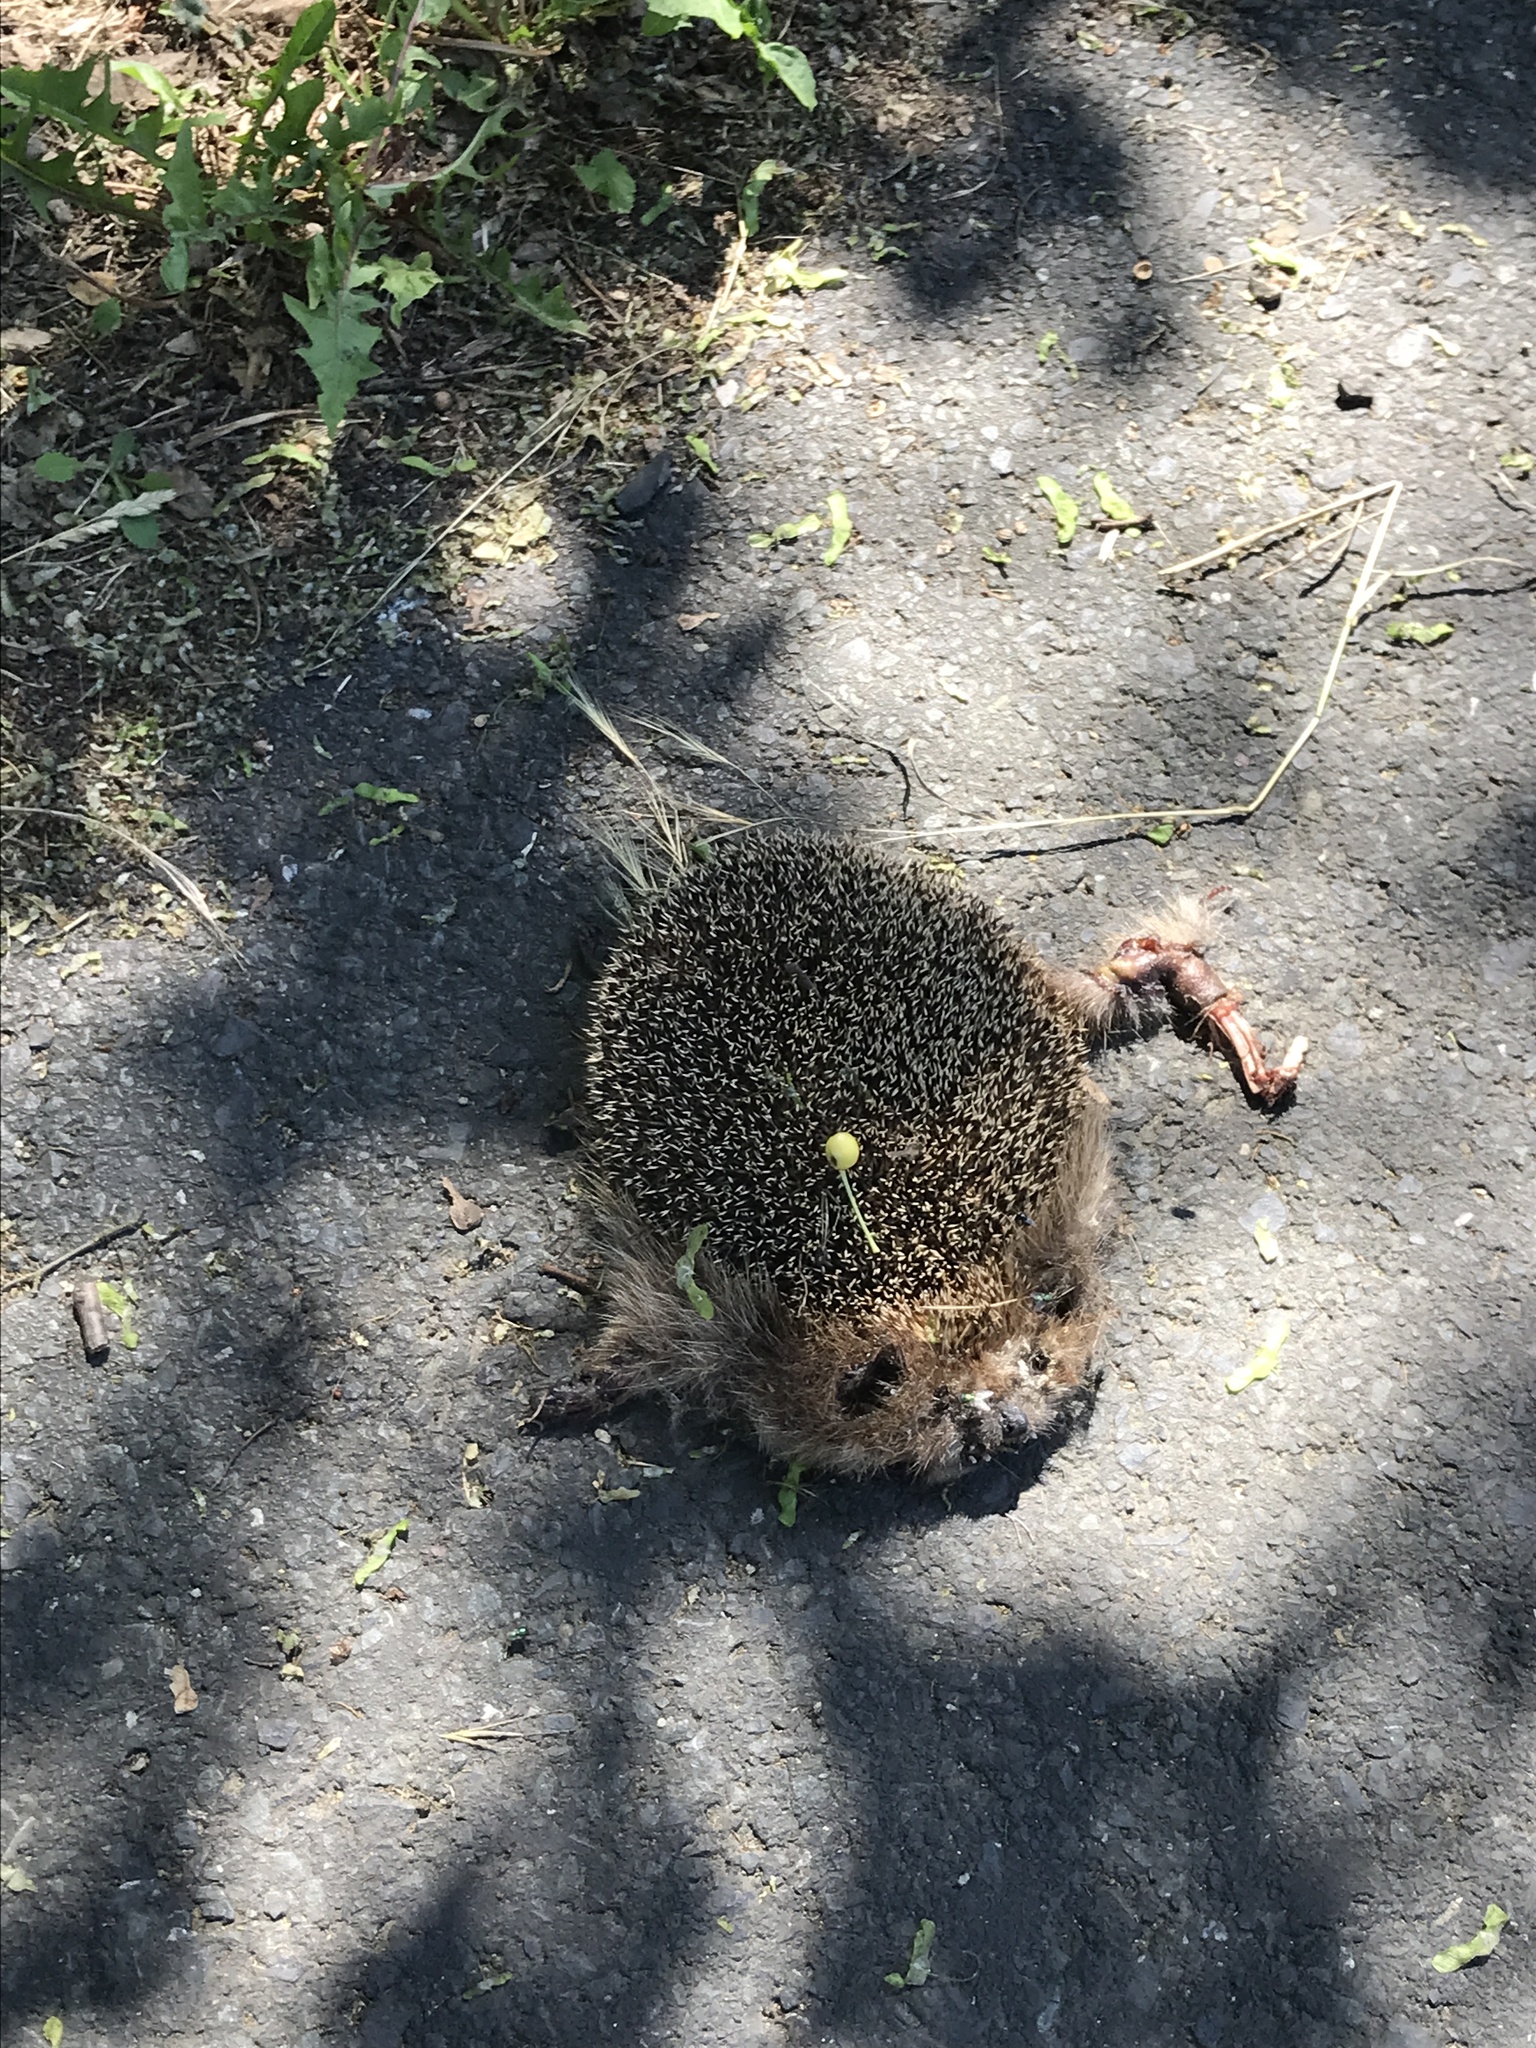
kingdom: Animalia
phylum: Chordata
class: Mammalia
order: Erinaceomorpha
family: Erinaceidae
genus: Erinaceus
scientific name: Erinaceus europaeus
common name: West european hedgehog
